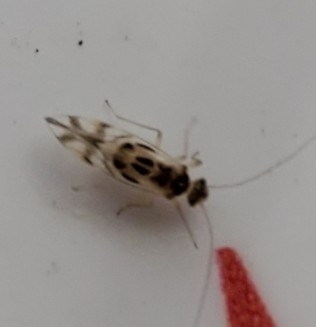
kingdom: Animalia
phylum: Arthropoda
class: Insecta
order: Psocodea
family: Stenopsocidae
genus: Graphopsocus
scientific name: Graphopsocus cruciatus
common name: Lizard bark louse
